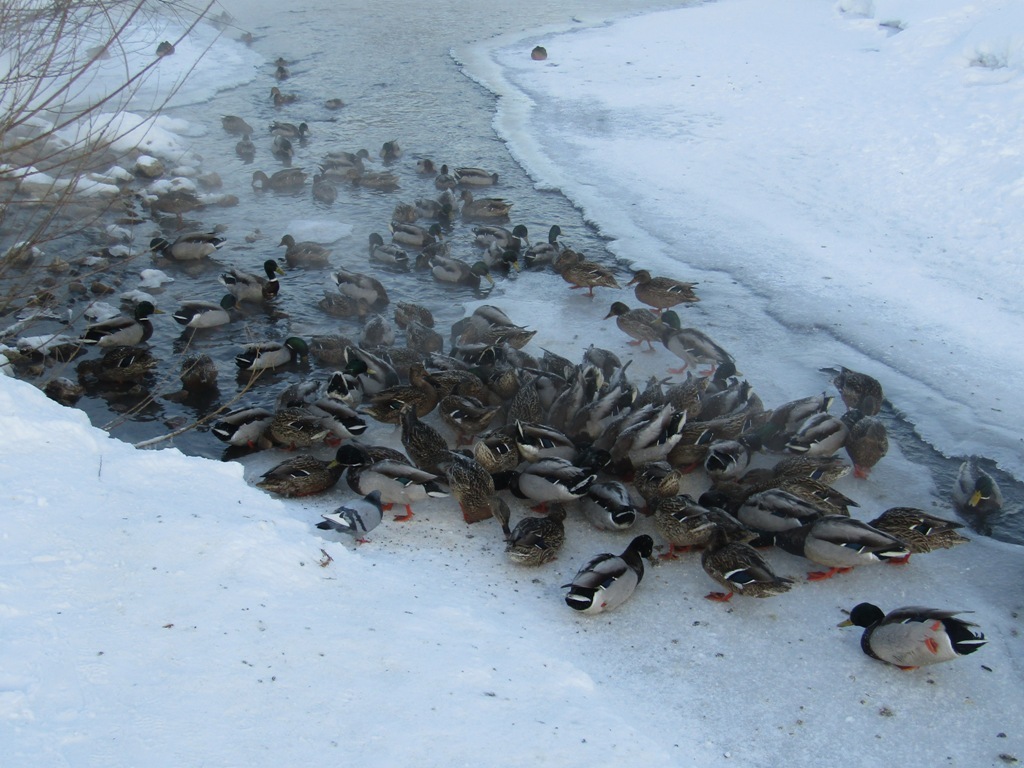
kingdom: Animalia
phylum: Chordata
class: Aves
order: Anseriformes
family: Anatidae
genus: Anas
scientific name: Anas platyrhynchos
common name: Mallard
